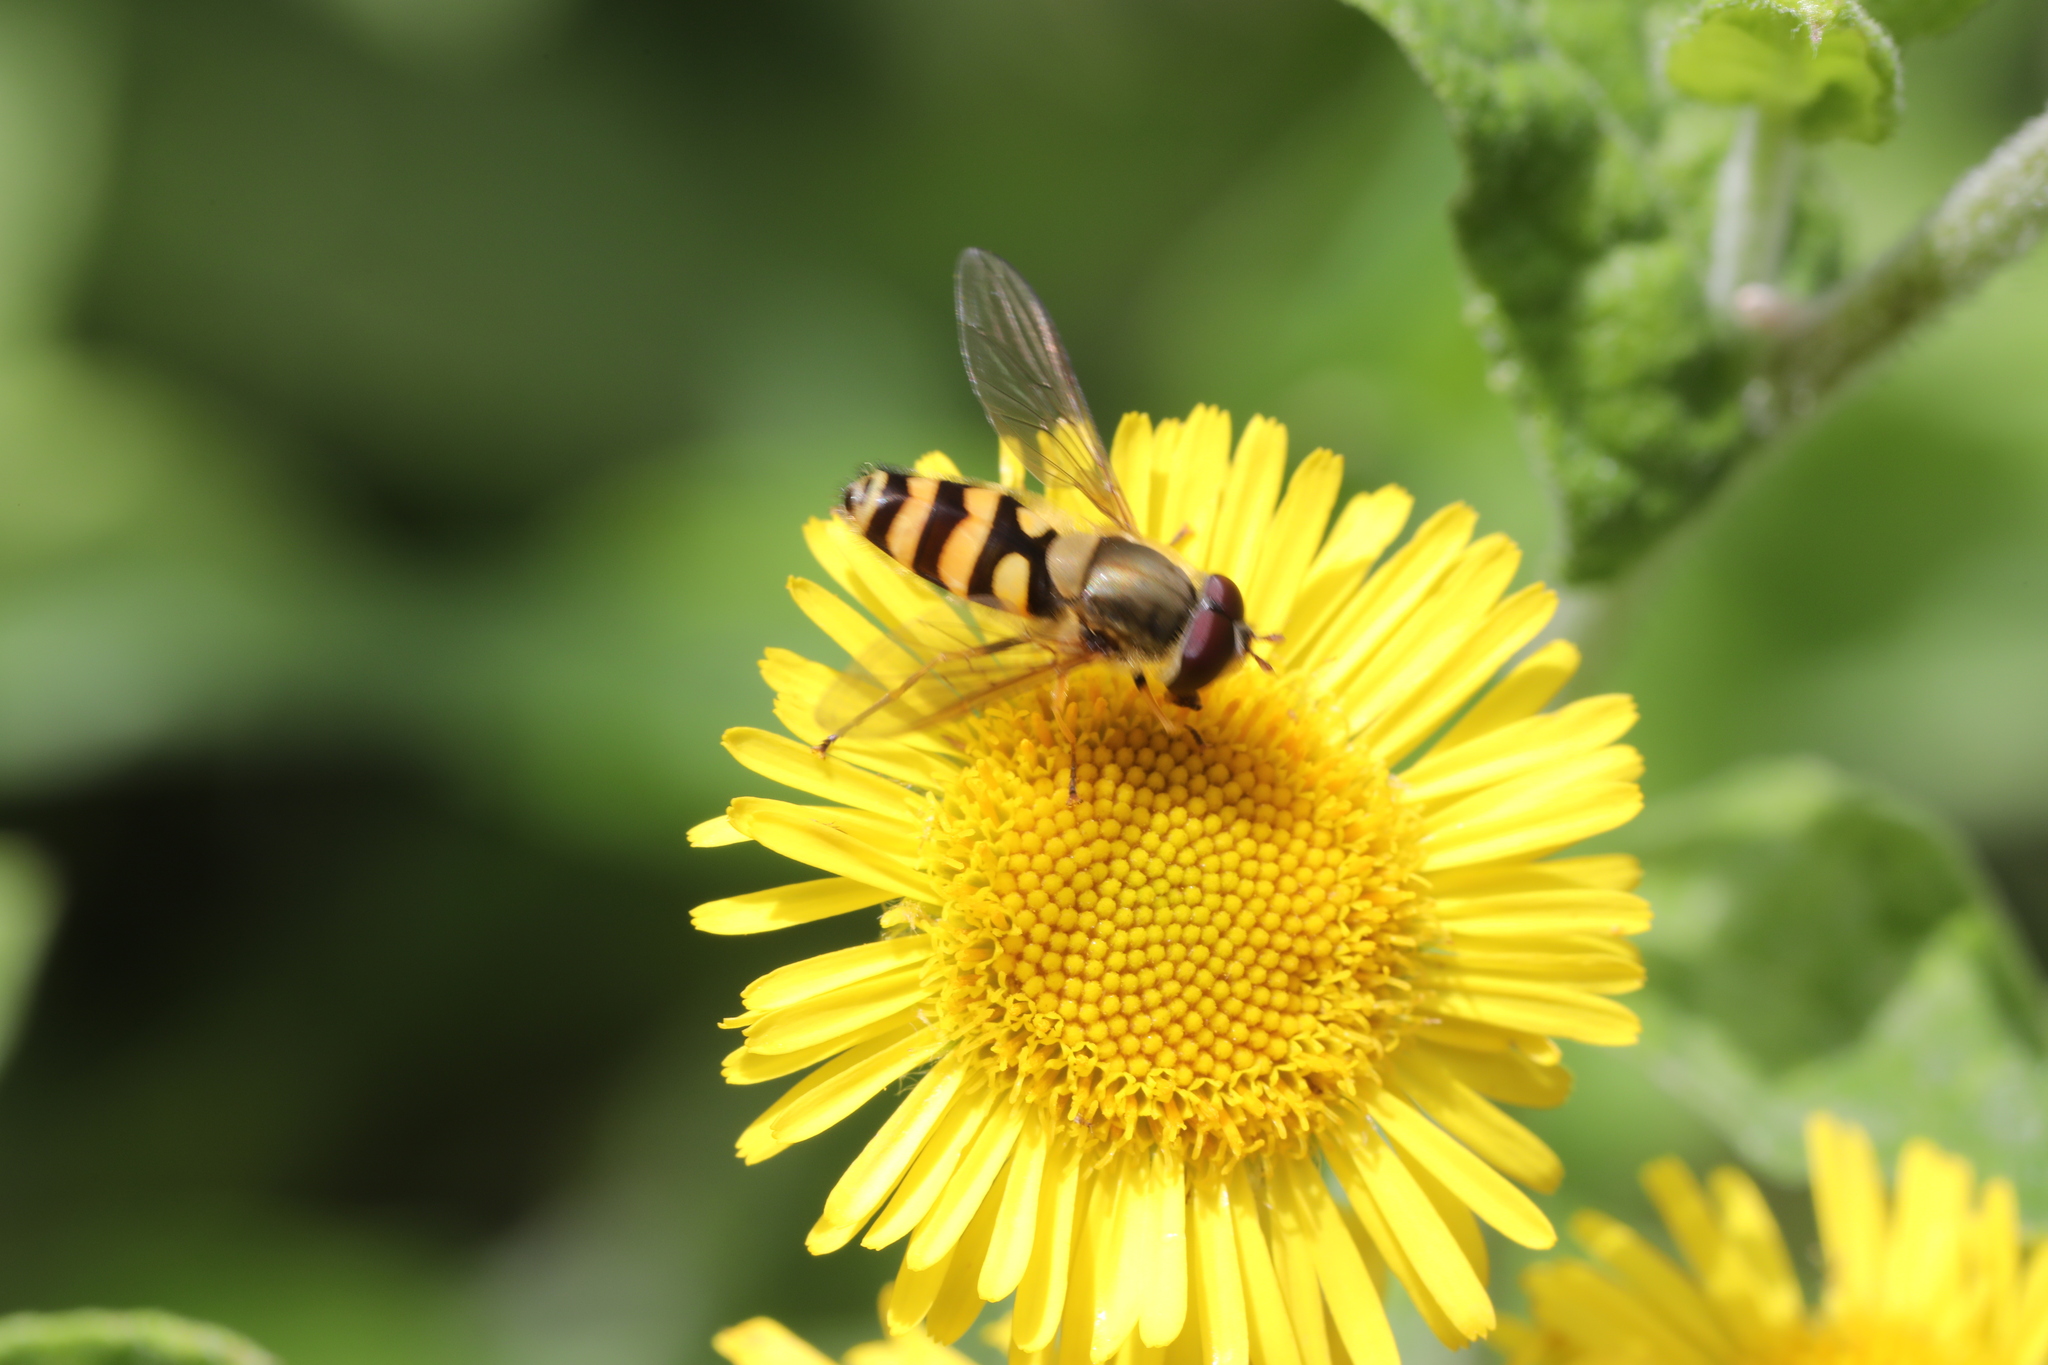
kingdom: Animalia
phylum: Arthropoda
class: Insecta
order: Diptera
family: Syrphidae
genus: Syrphus
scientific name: Syrphus
